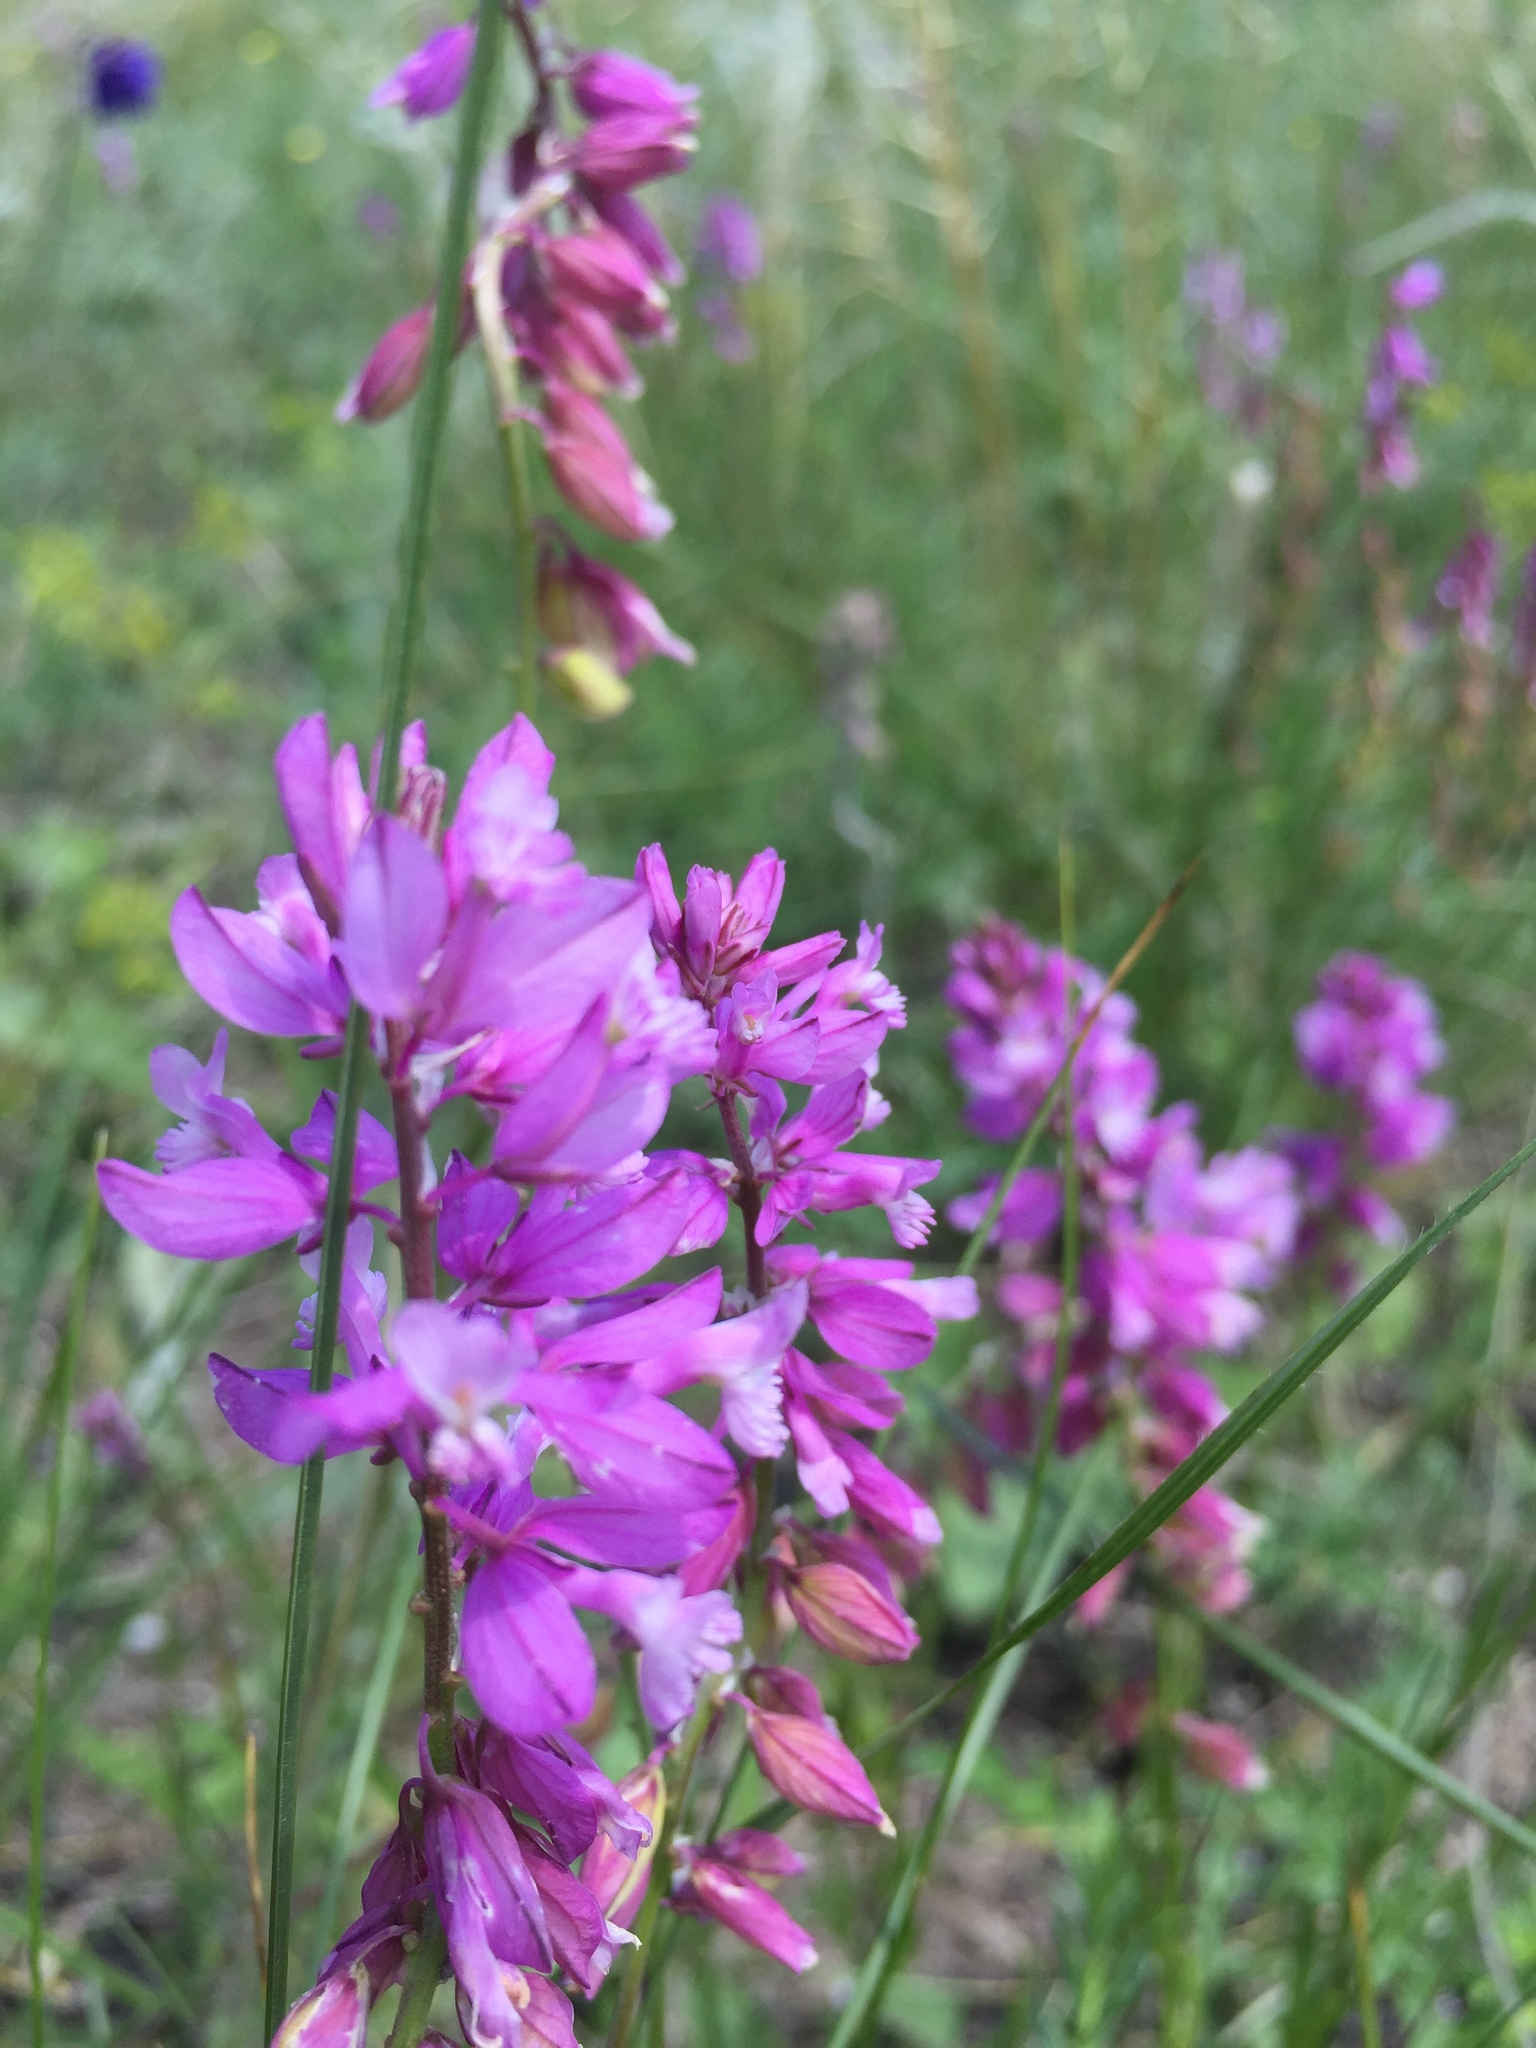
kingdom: Plantae
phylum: Tracheophyta
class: Magnoliopsida
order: Fabales
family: Polygalaceae
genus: Polygala
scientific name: Polygala nicaeensis
